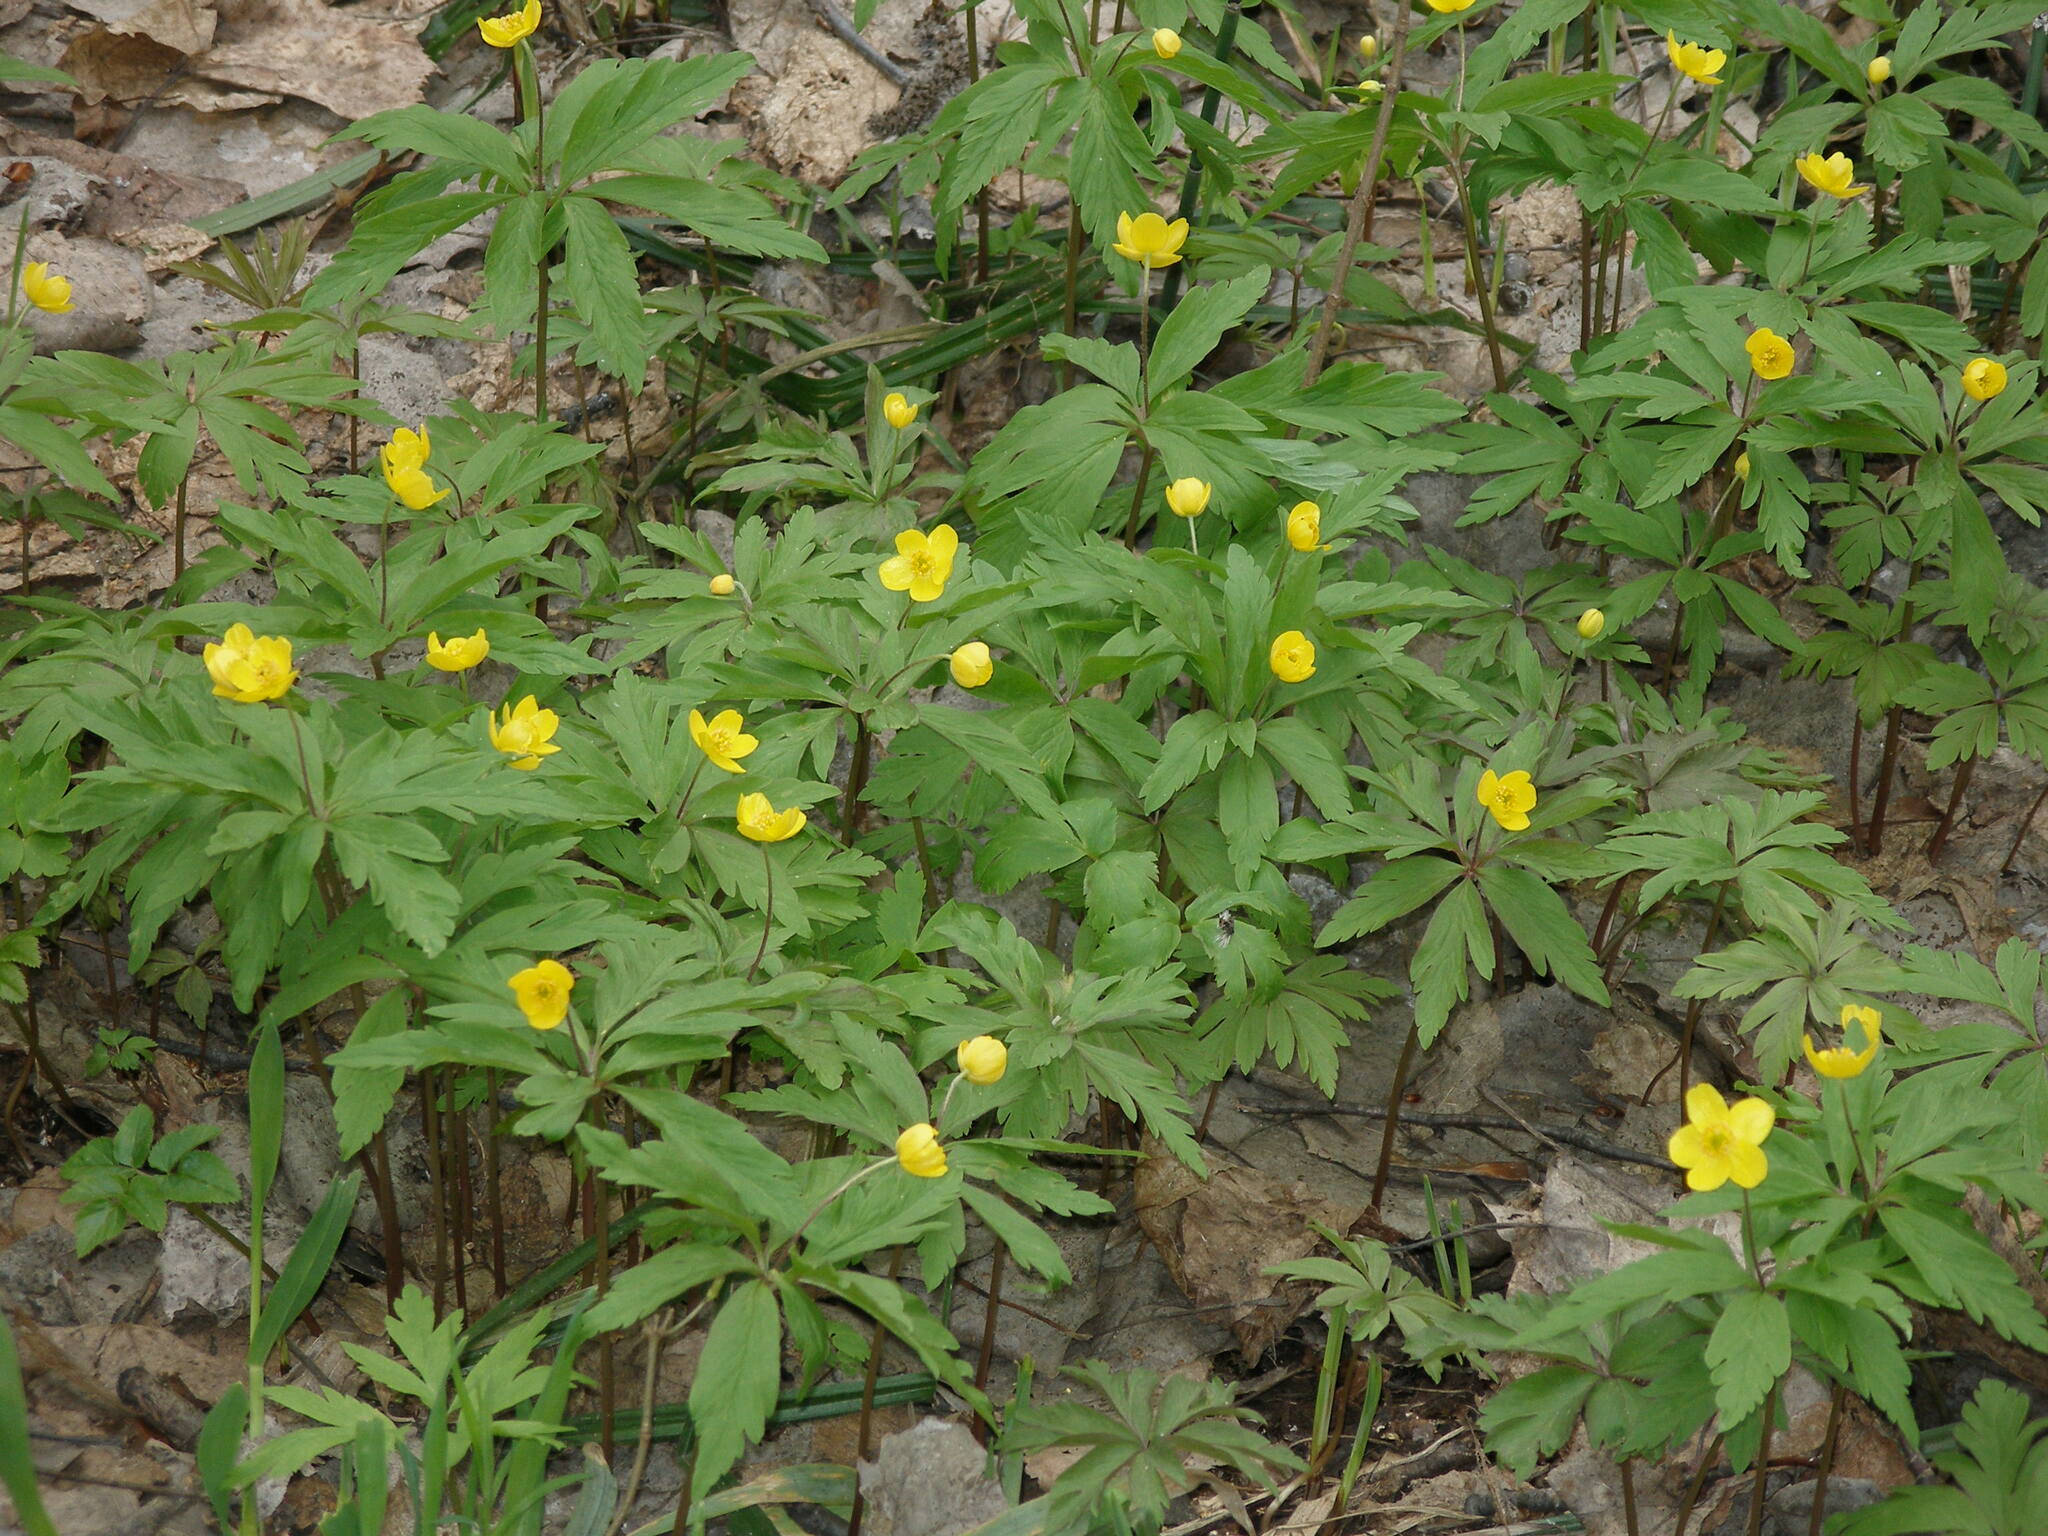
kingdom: Plantae
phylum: Tracheophyta
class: Magnoliopsida
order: Ranunculales
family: Ranunculaceae
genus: Anemone
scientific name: Anemone ranunculoides
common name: Yellow anemone
